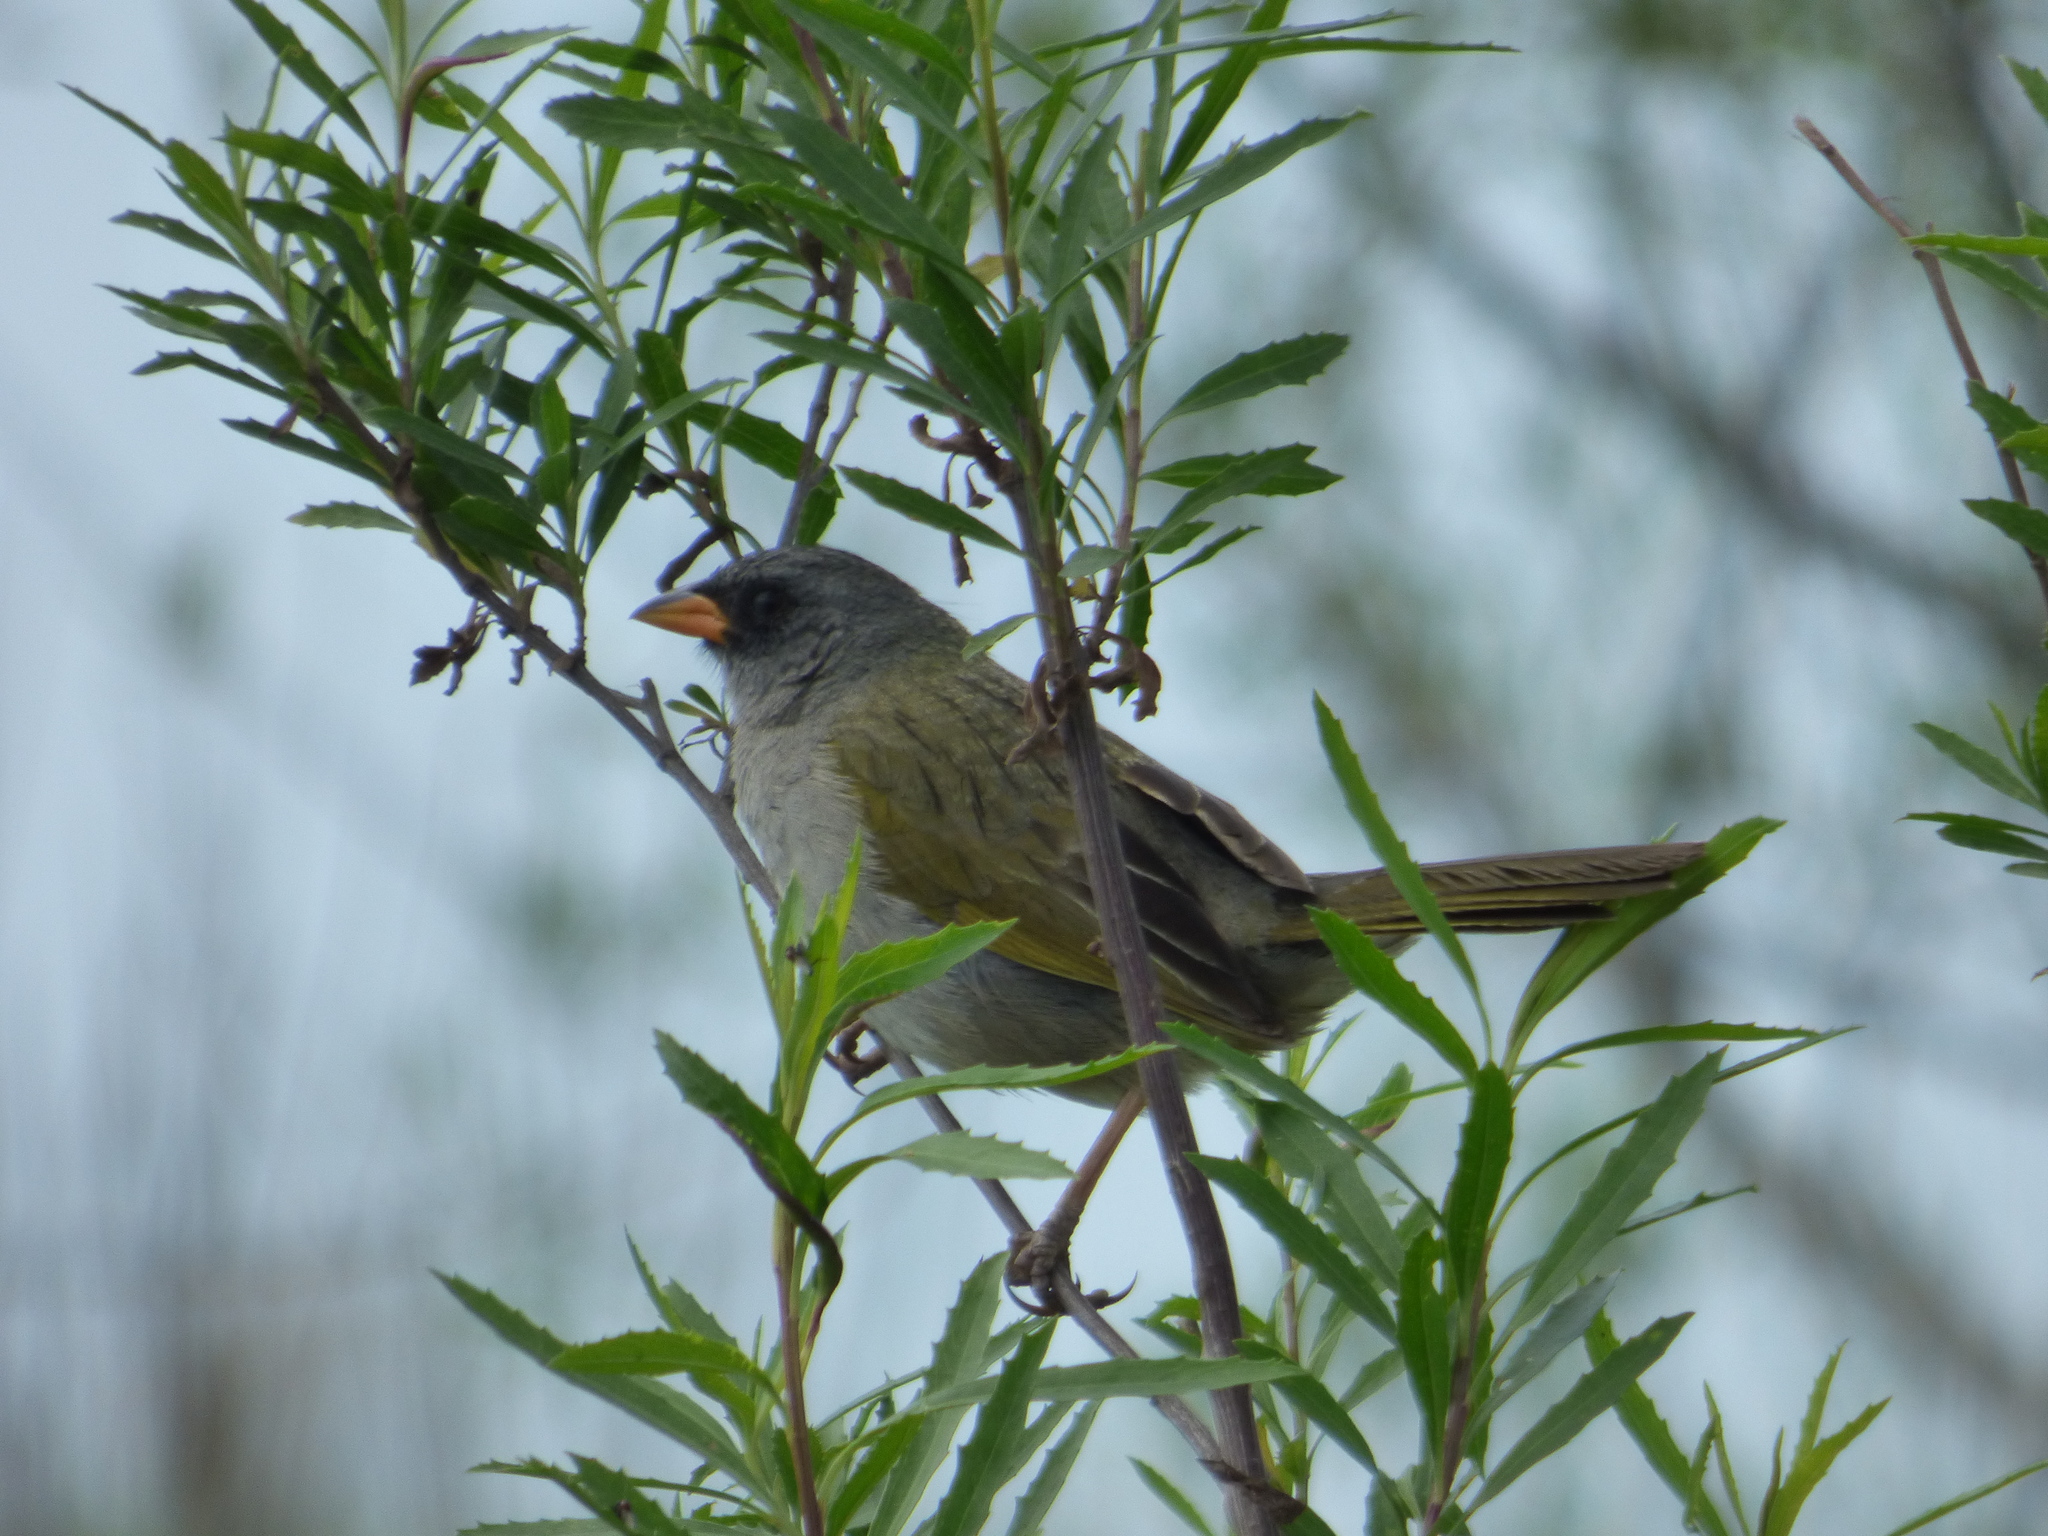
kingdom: Animalia
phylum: Chordata
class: Aves
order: Passeriformes
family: Thraupidae
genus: Embernagra
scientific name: Embernagra platensis
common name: Pampa finch
